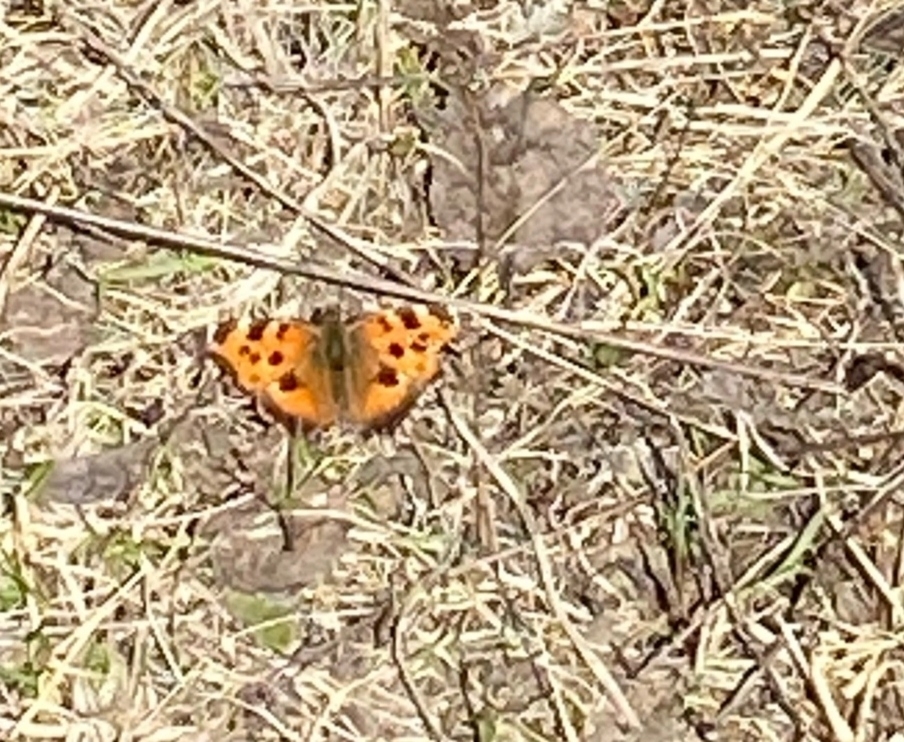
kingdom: Animalia
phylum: Arthropoda
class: Insecta
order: Lepidoptera
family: Nymphalidae
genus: Nymphalis
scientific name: Nymphalis xanthomelas
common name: Scarce tortoiseshell
